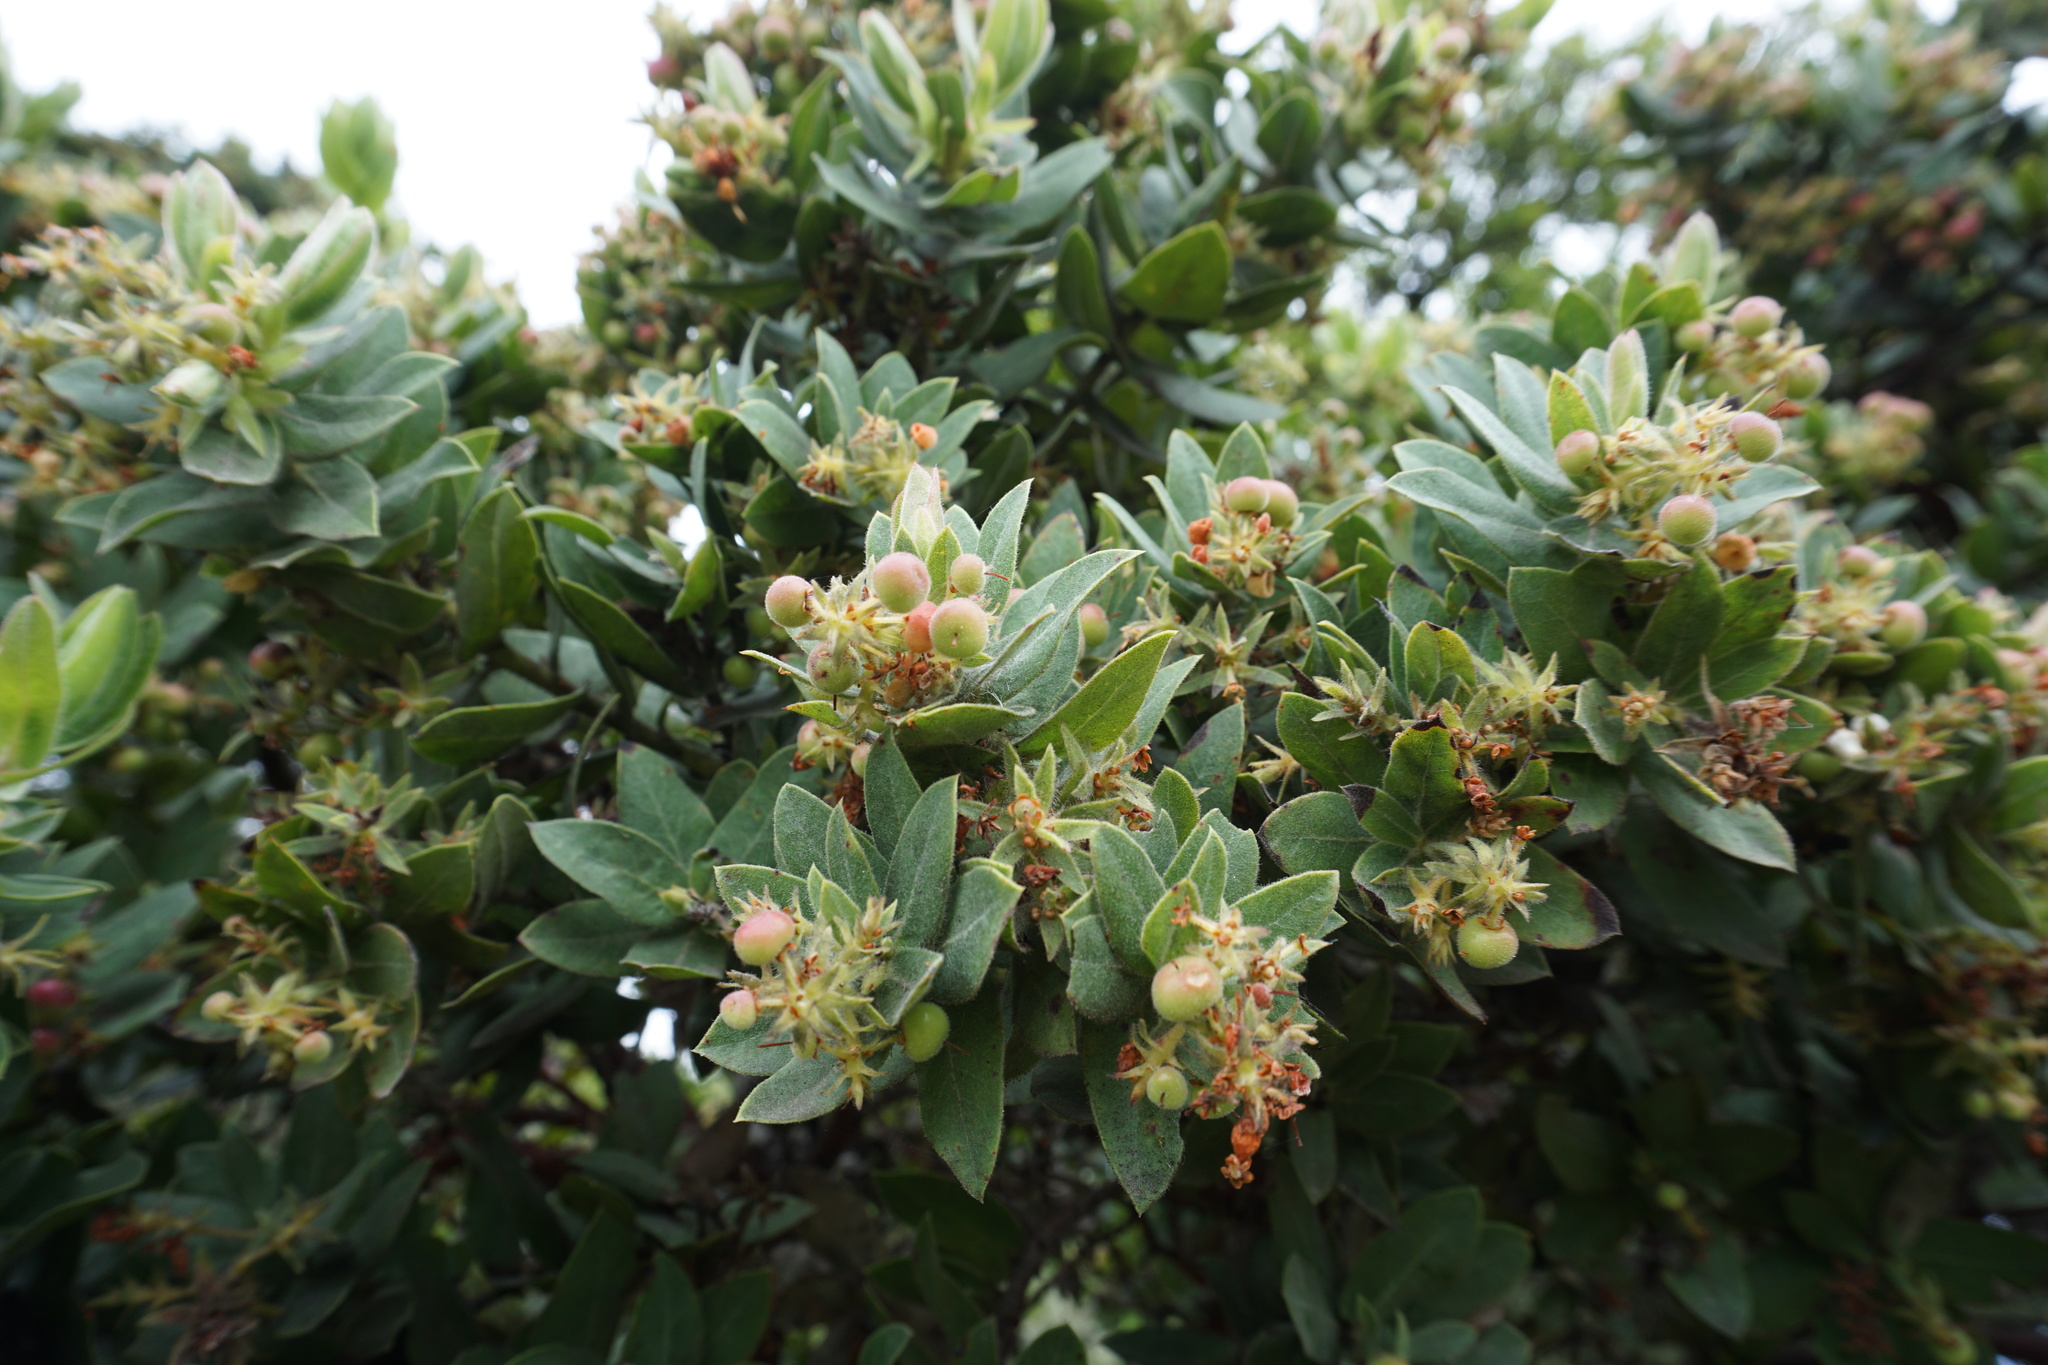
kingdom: Plantae
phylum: Tracheophyta
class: Magnoliopsida
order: Ericales
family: Ericaceae
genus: Arctostaphylos
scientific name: Arctostaphylos montaraensis
